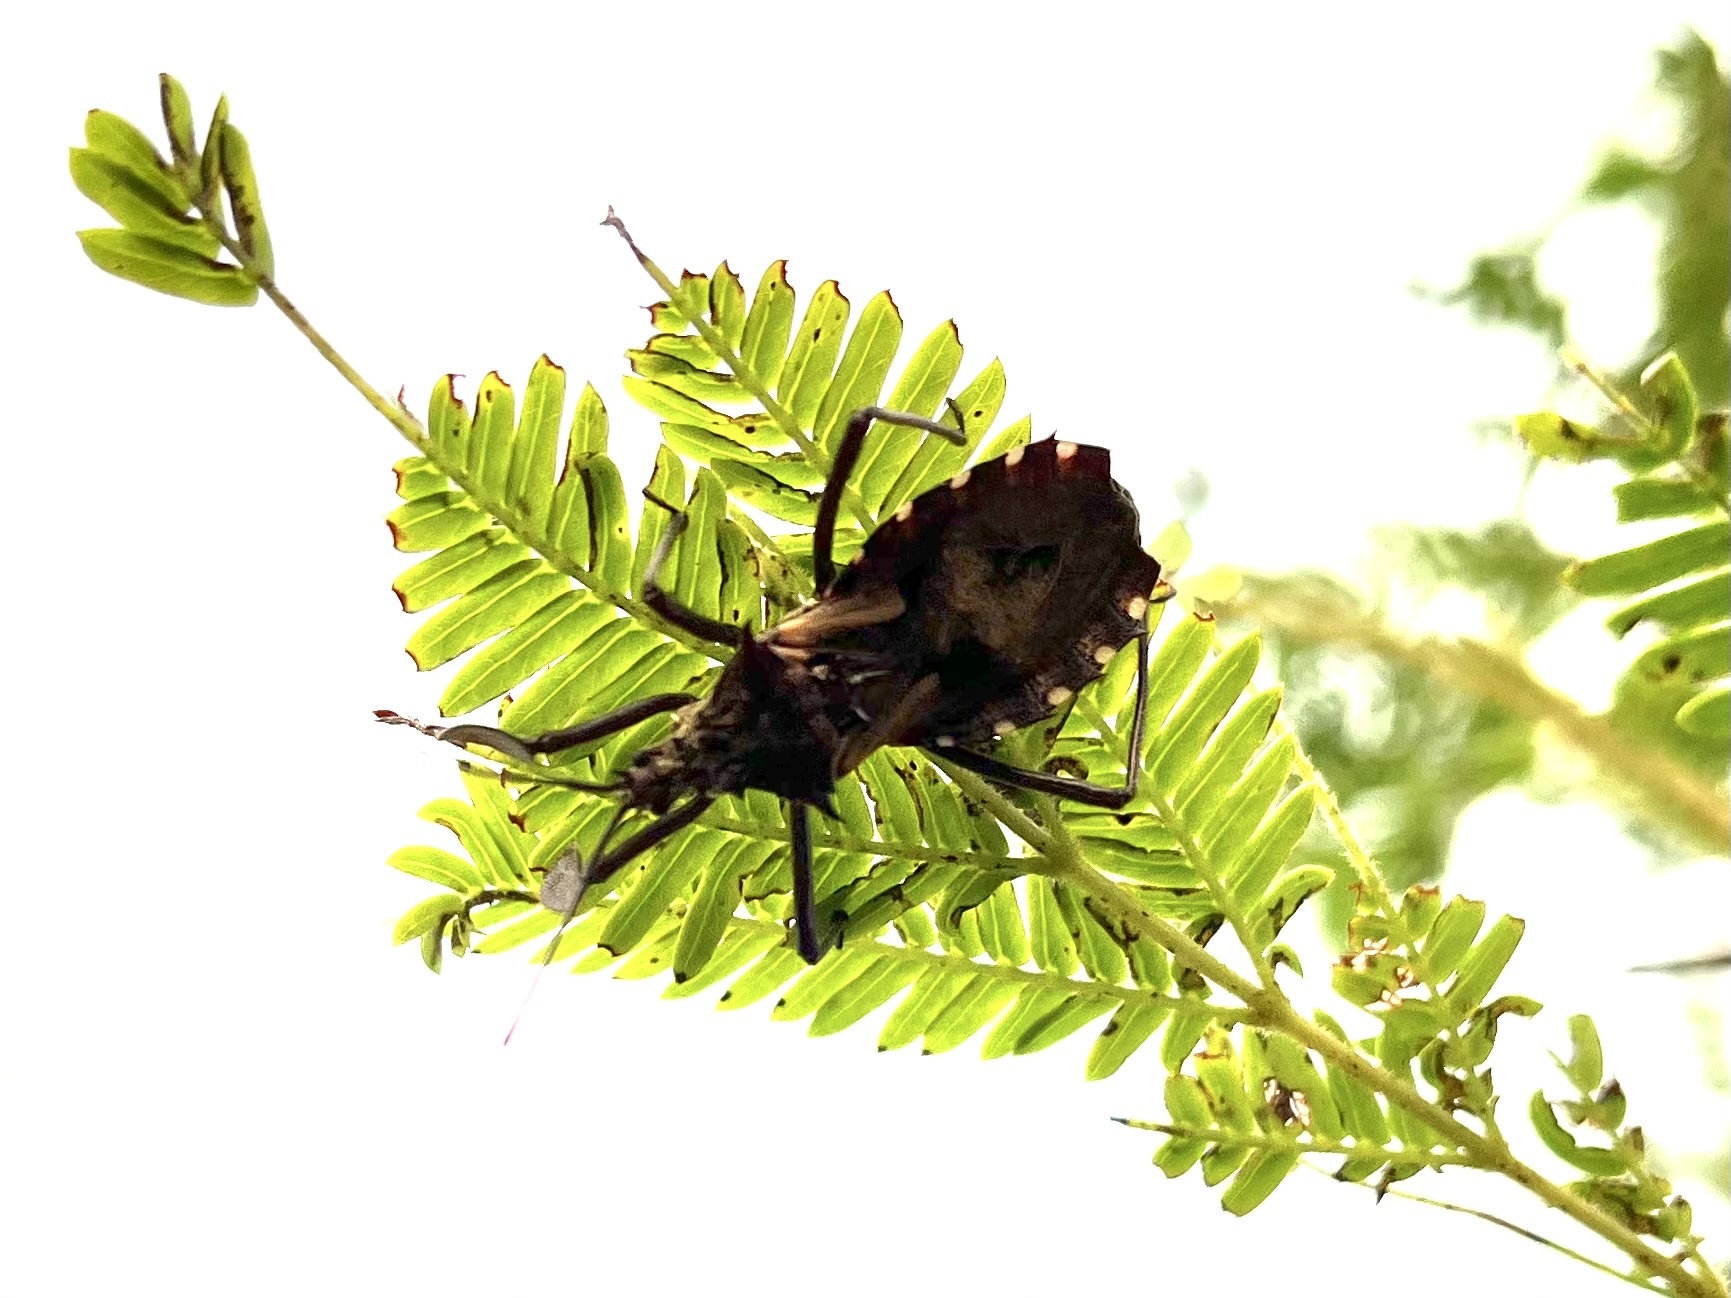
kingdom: Animalia
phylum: Arthropoda
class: Insecta
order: Hemiptera
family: Reduviidae
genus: Platychiria
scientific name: Platychiria umbrosa
